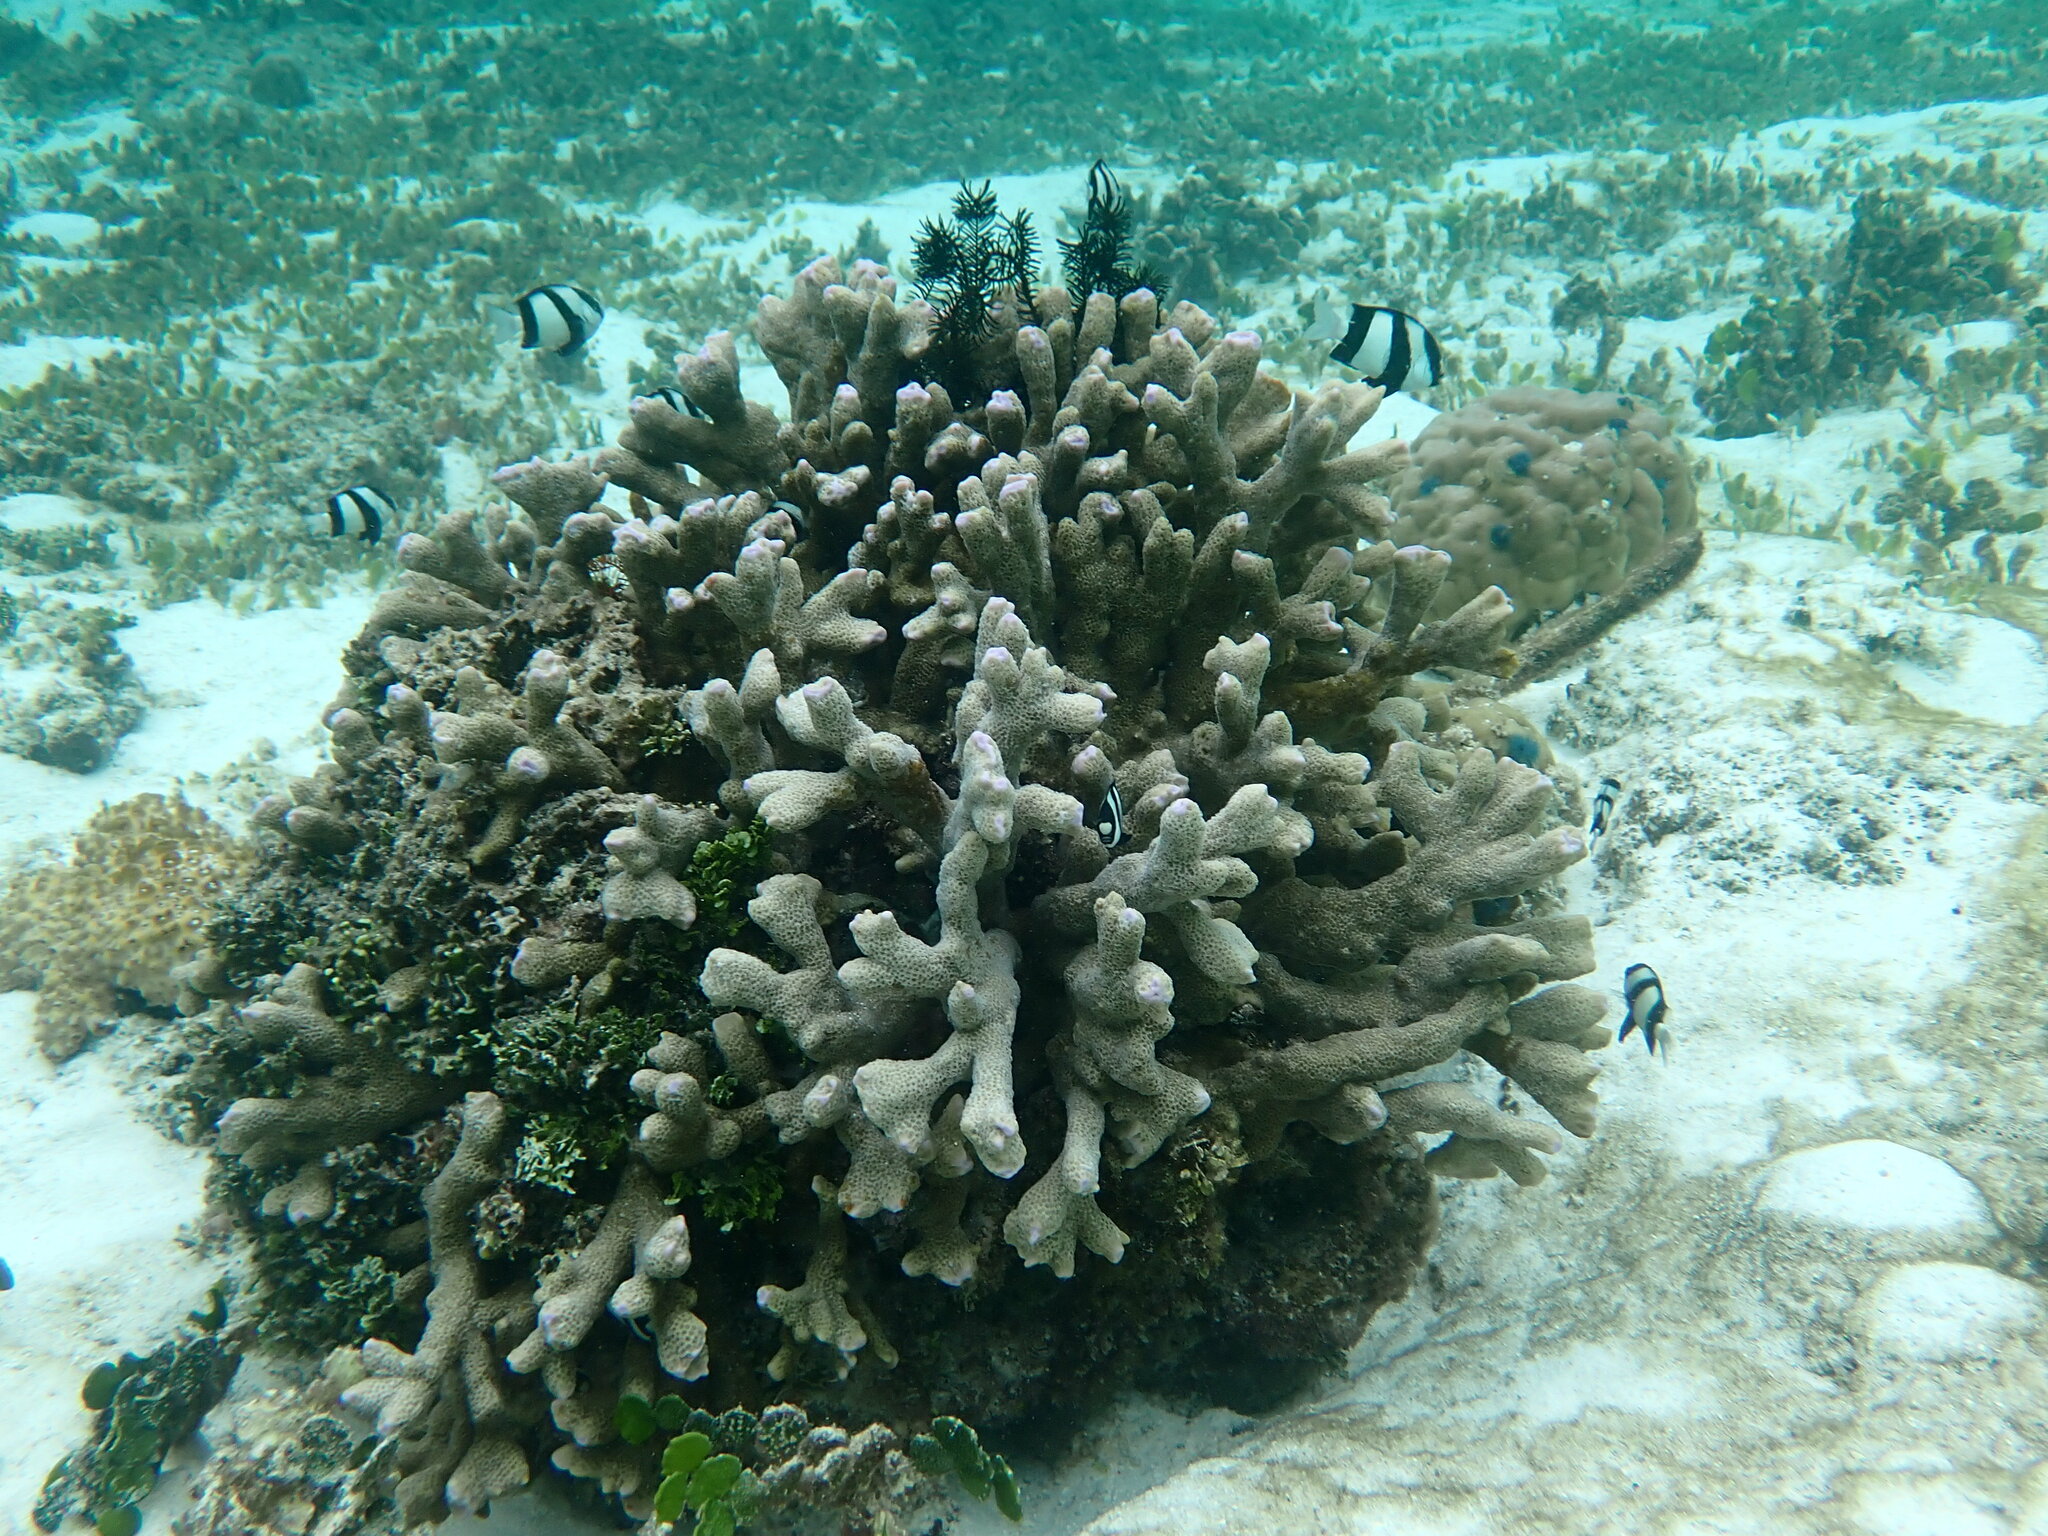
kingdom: Animalia
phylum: Chordata
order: Perciformes
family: Pomacentridae
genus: Dascyllus
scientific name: Dascyllus aruanus
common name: Humbug dascyllus
